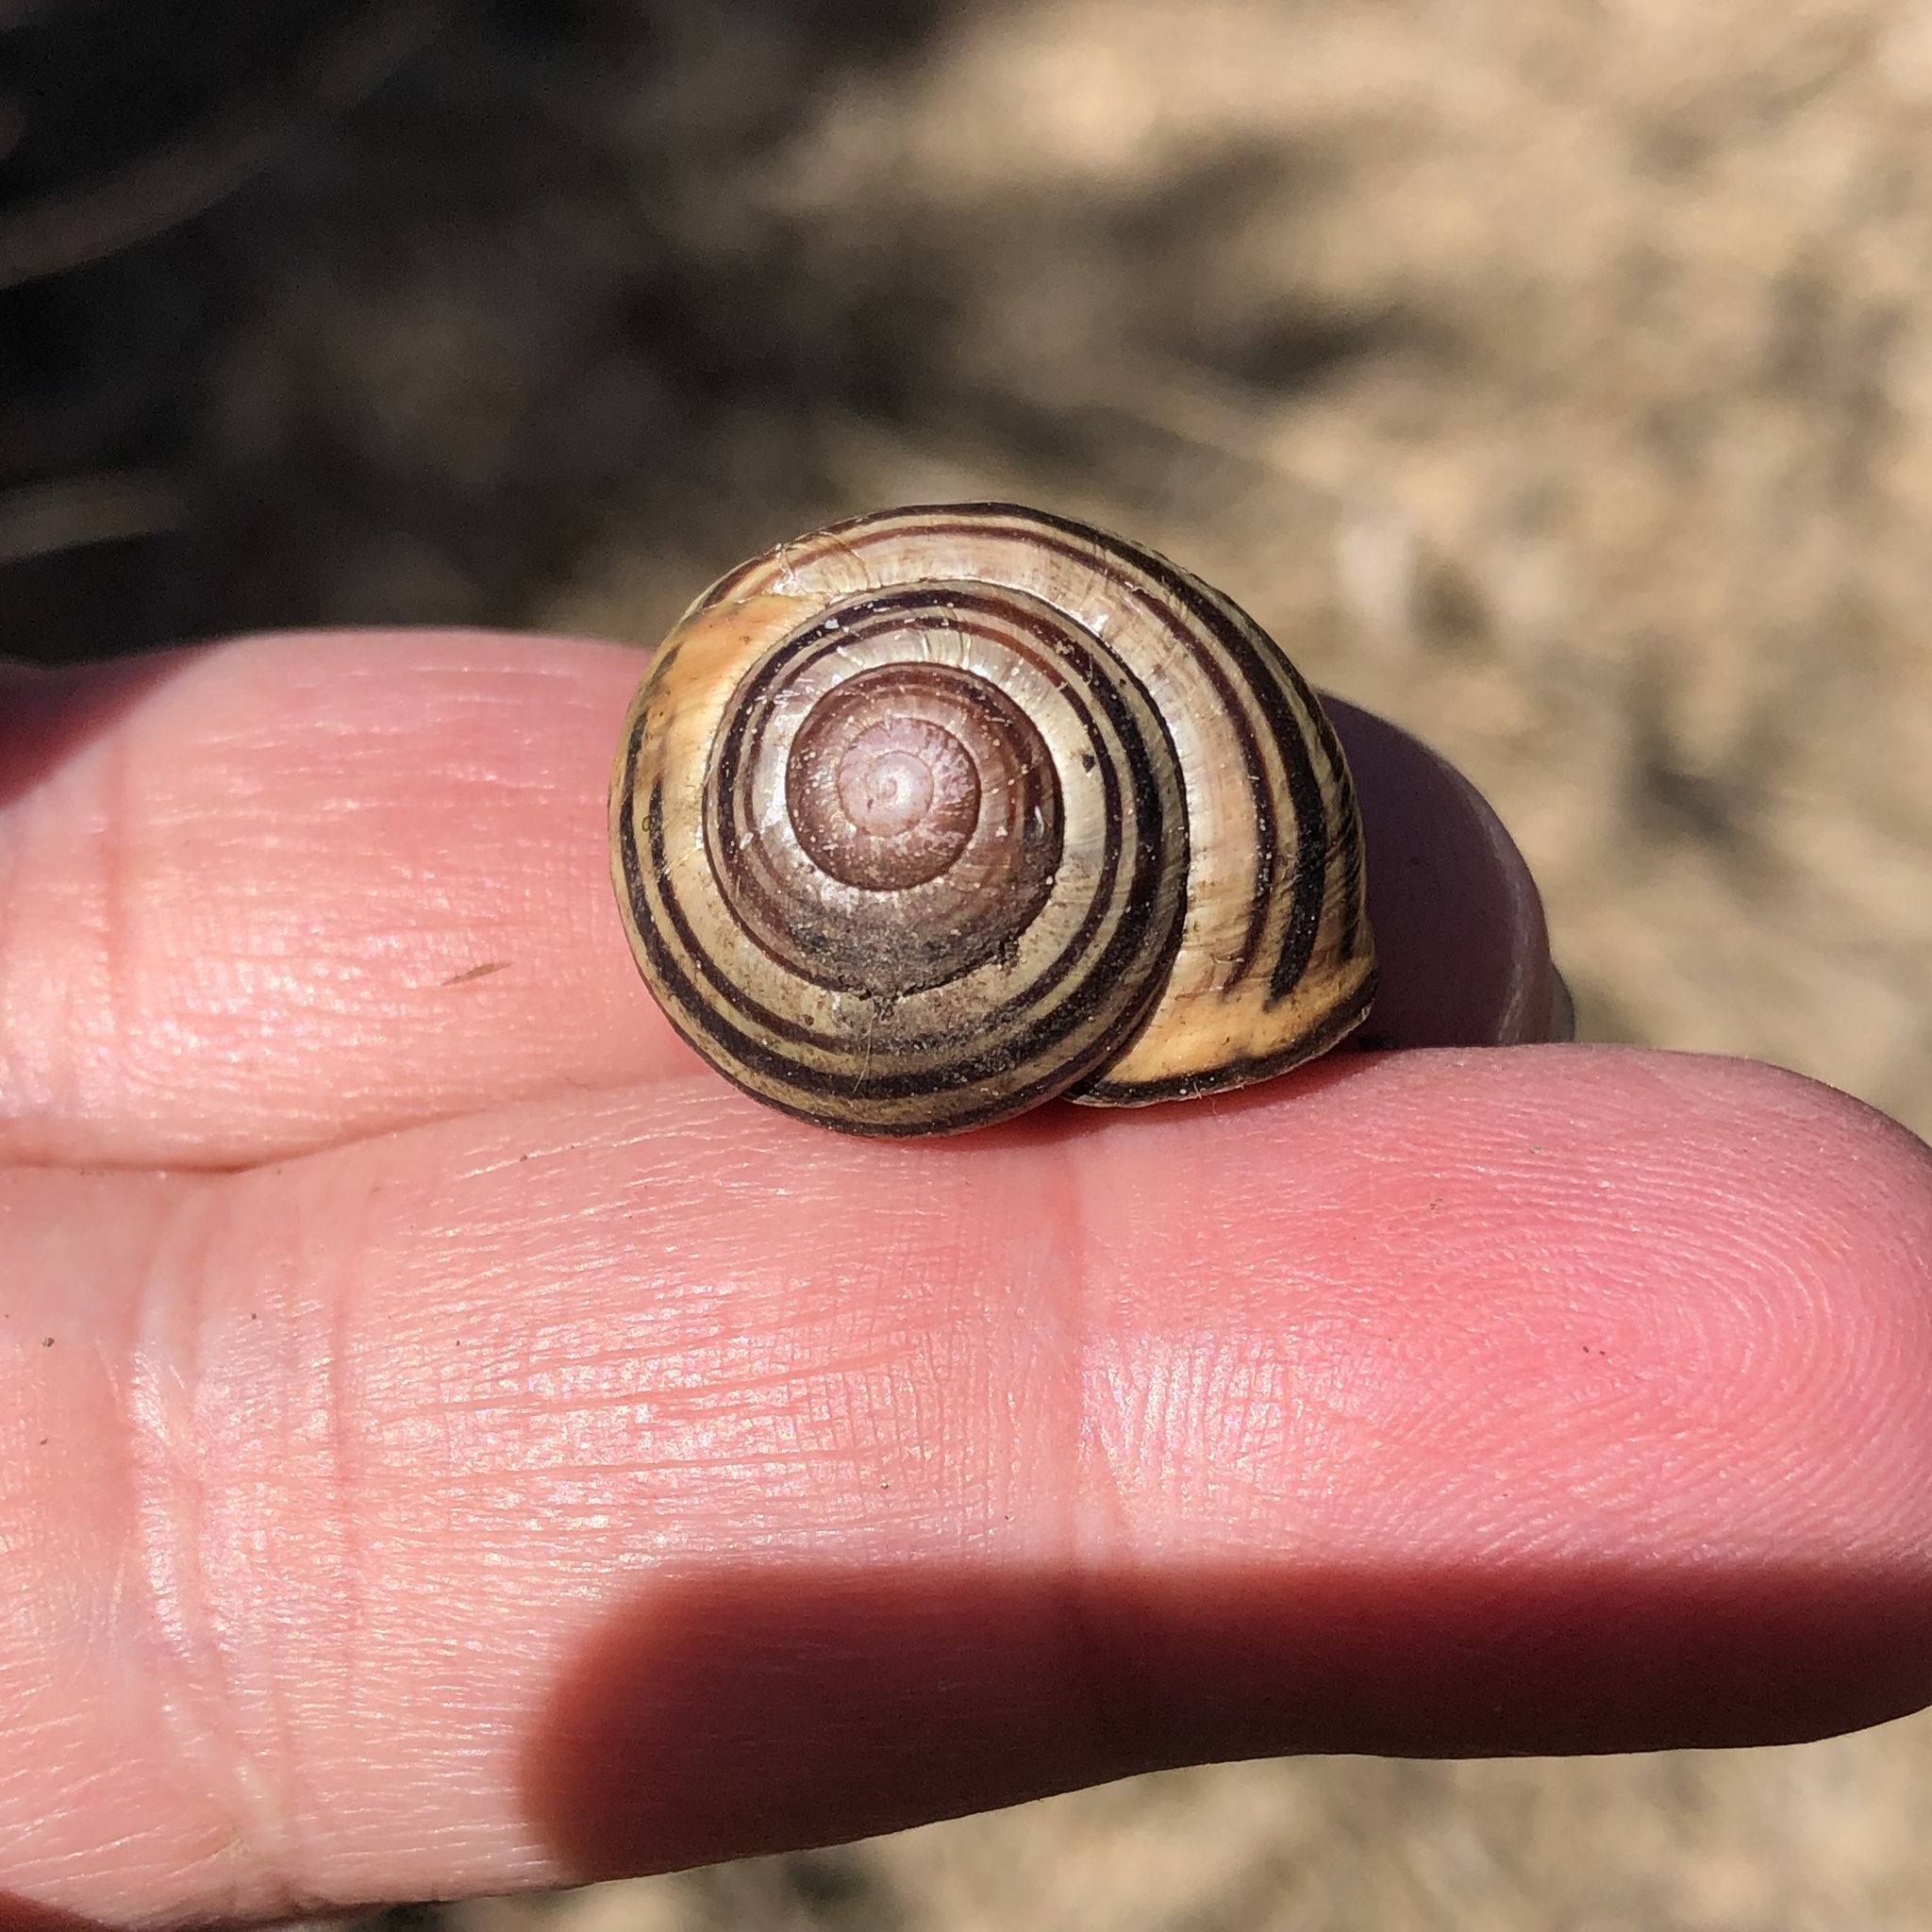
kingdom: Animalia
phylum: Mollusca
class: Gastropoda
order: Stylommatophora
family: Helicidae
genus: Cepaea
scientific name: Cepaea nemoralis
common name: Grovesnail
